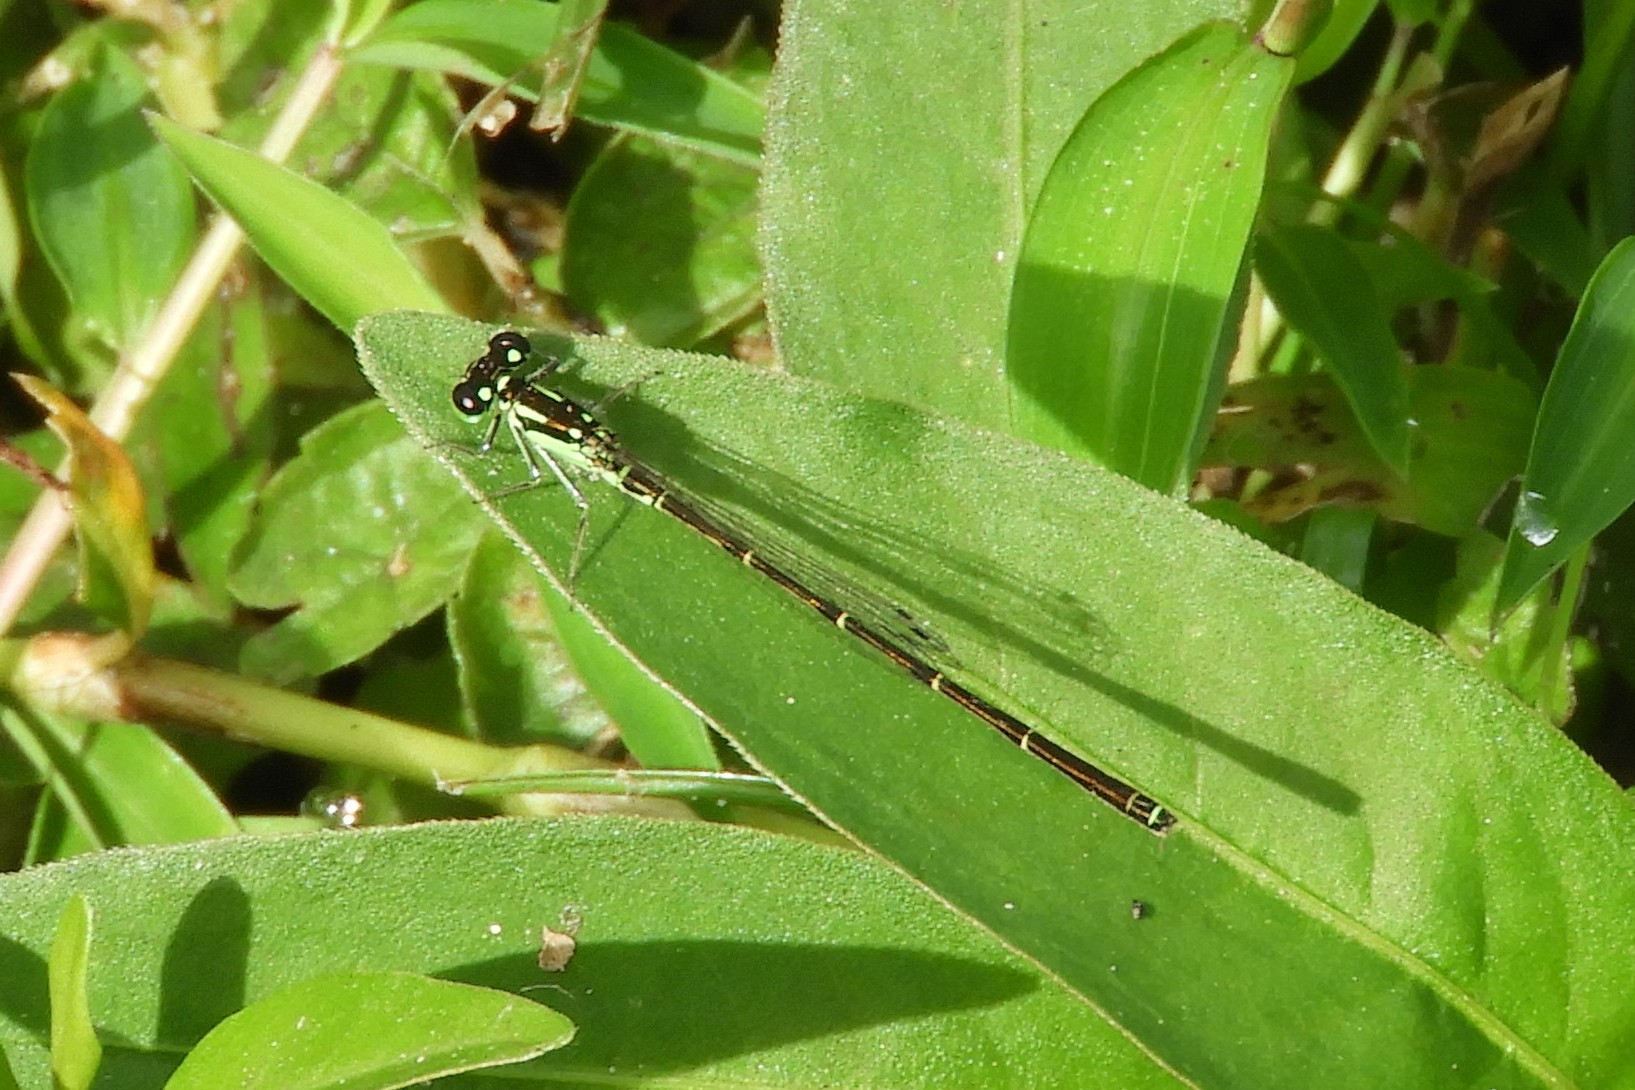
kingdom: Animalia
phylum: Arthropoda
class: Insecta
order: Odonata
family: Coenagrionidae
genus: Ischnura
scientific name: Ischnura posita
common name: Fragile forktail
